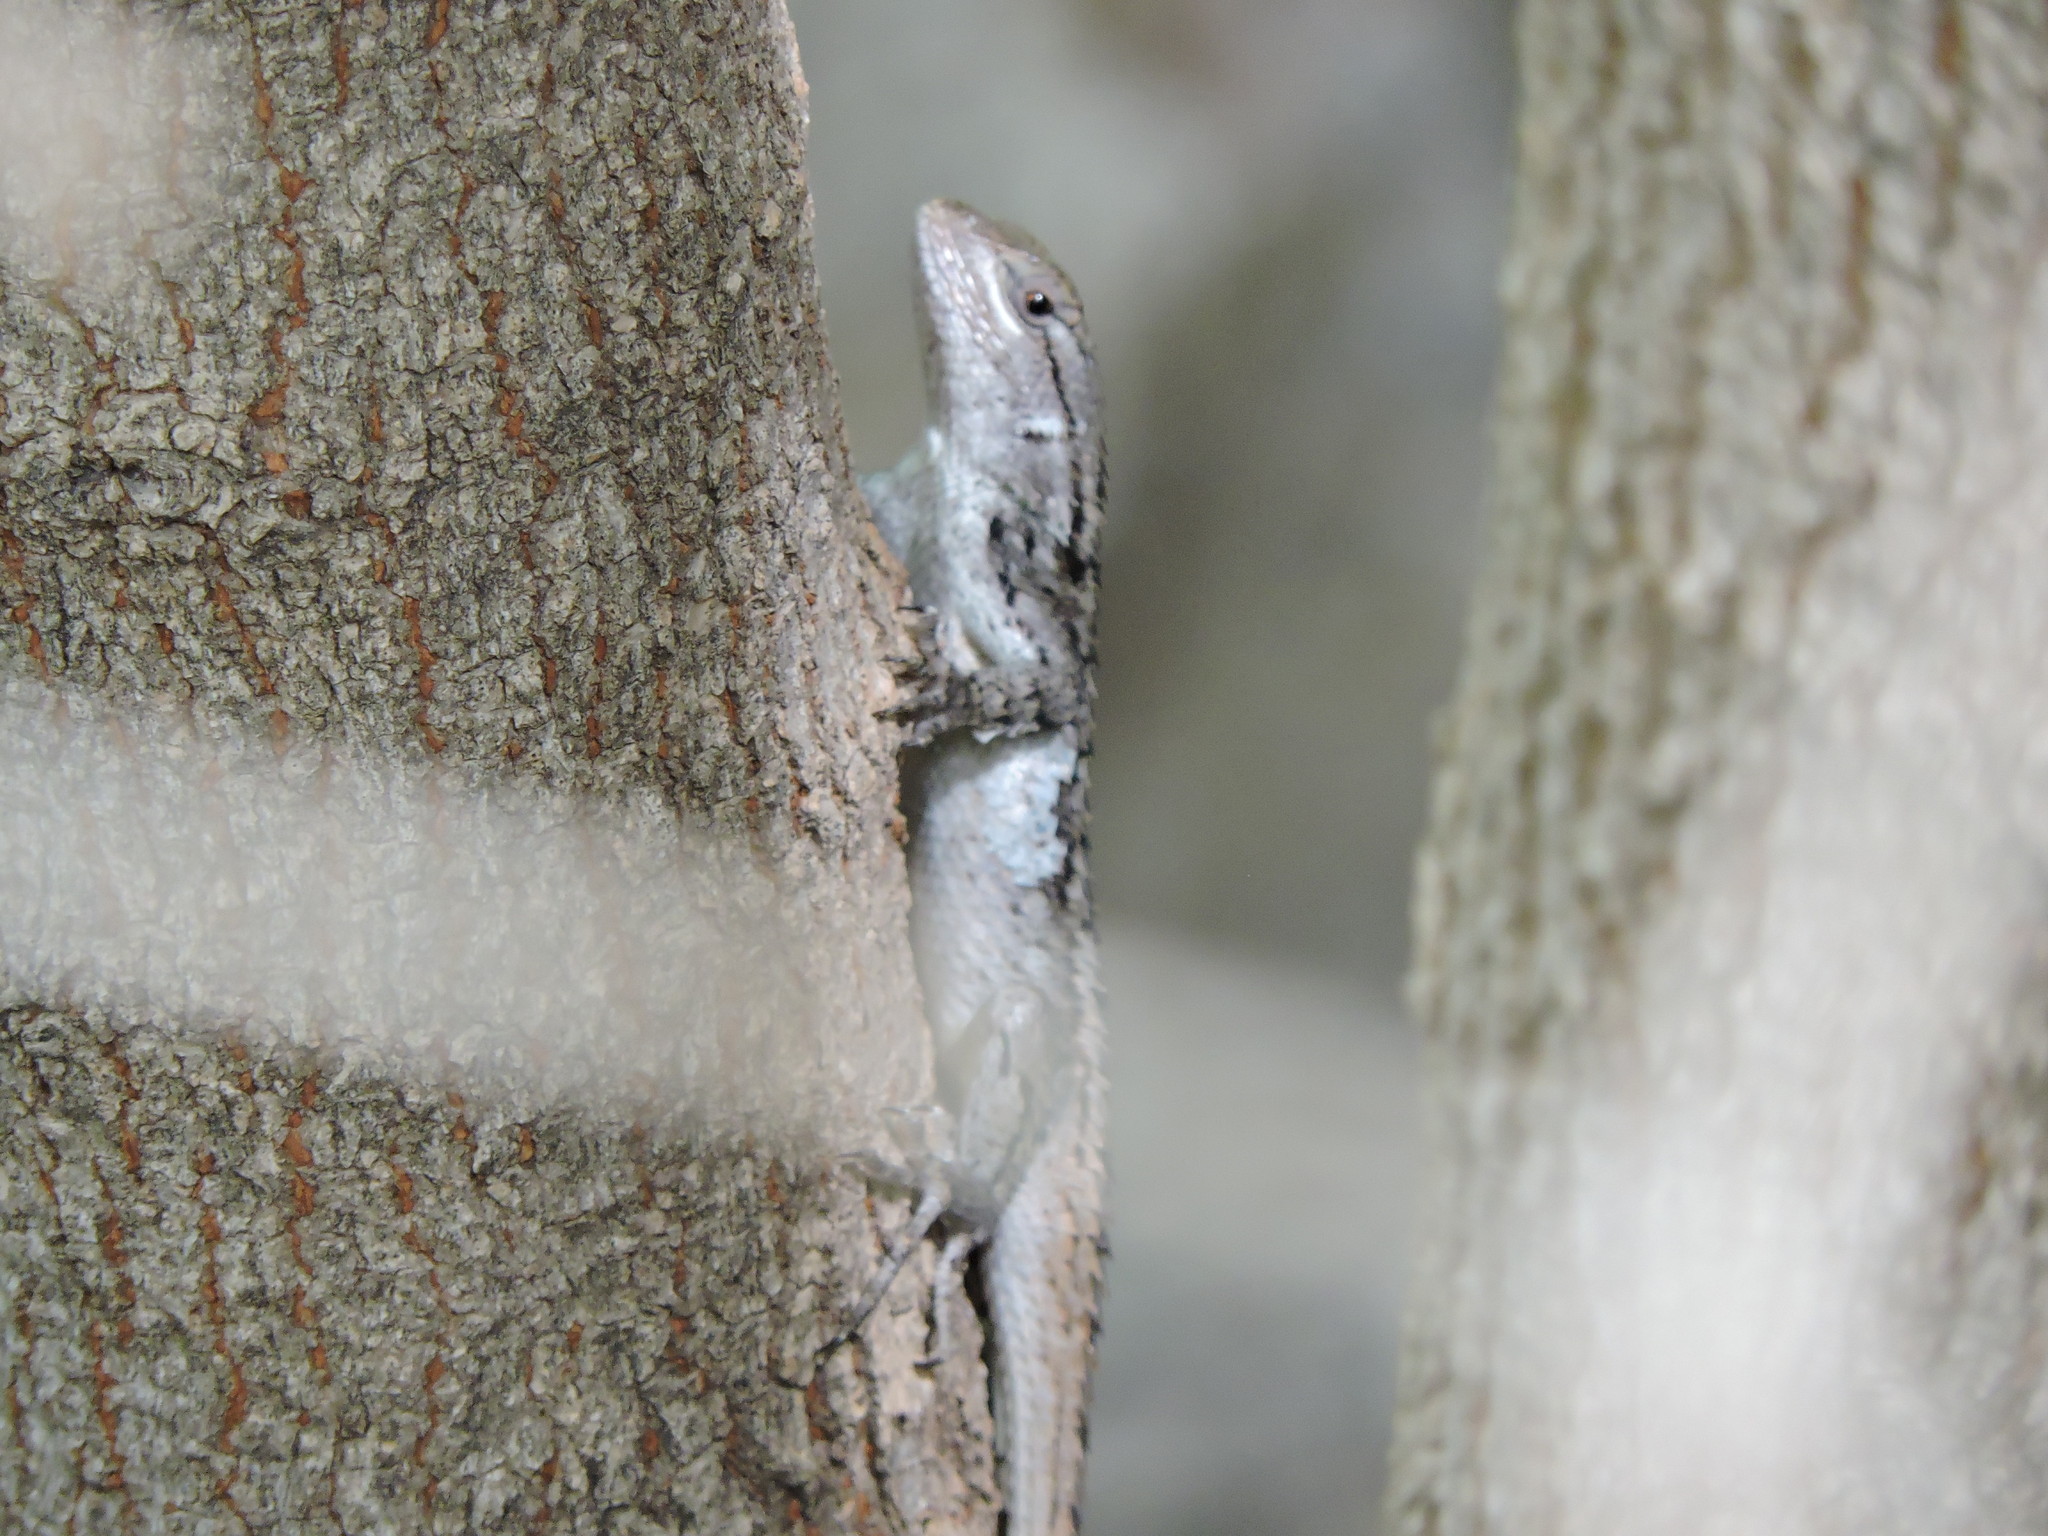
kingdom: Animalia
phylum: Chordata
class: Squamata
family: Phrynosomatidae
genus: Sceloporus
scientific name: Sceloporus olivaceus
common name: Texas spiny lizard
